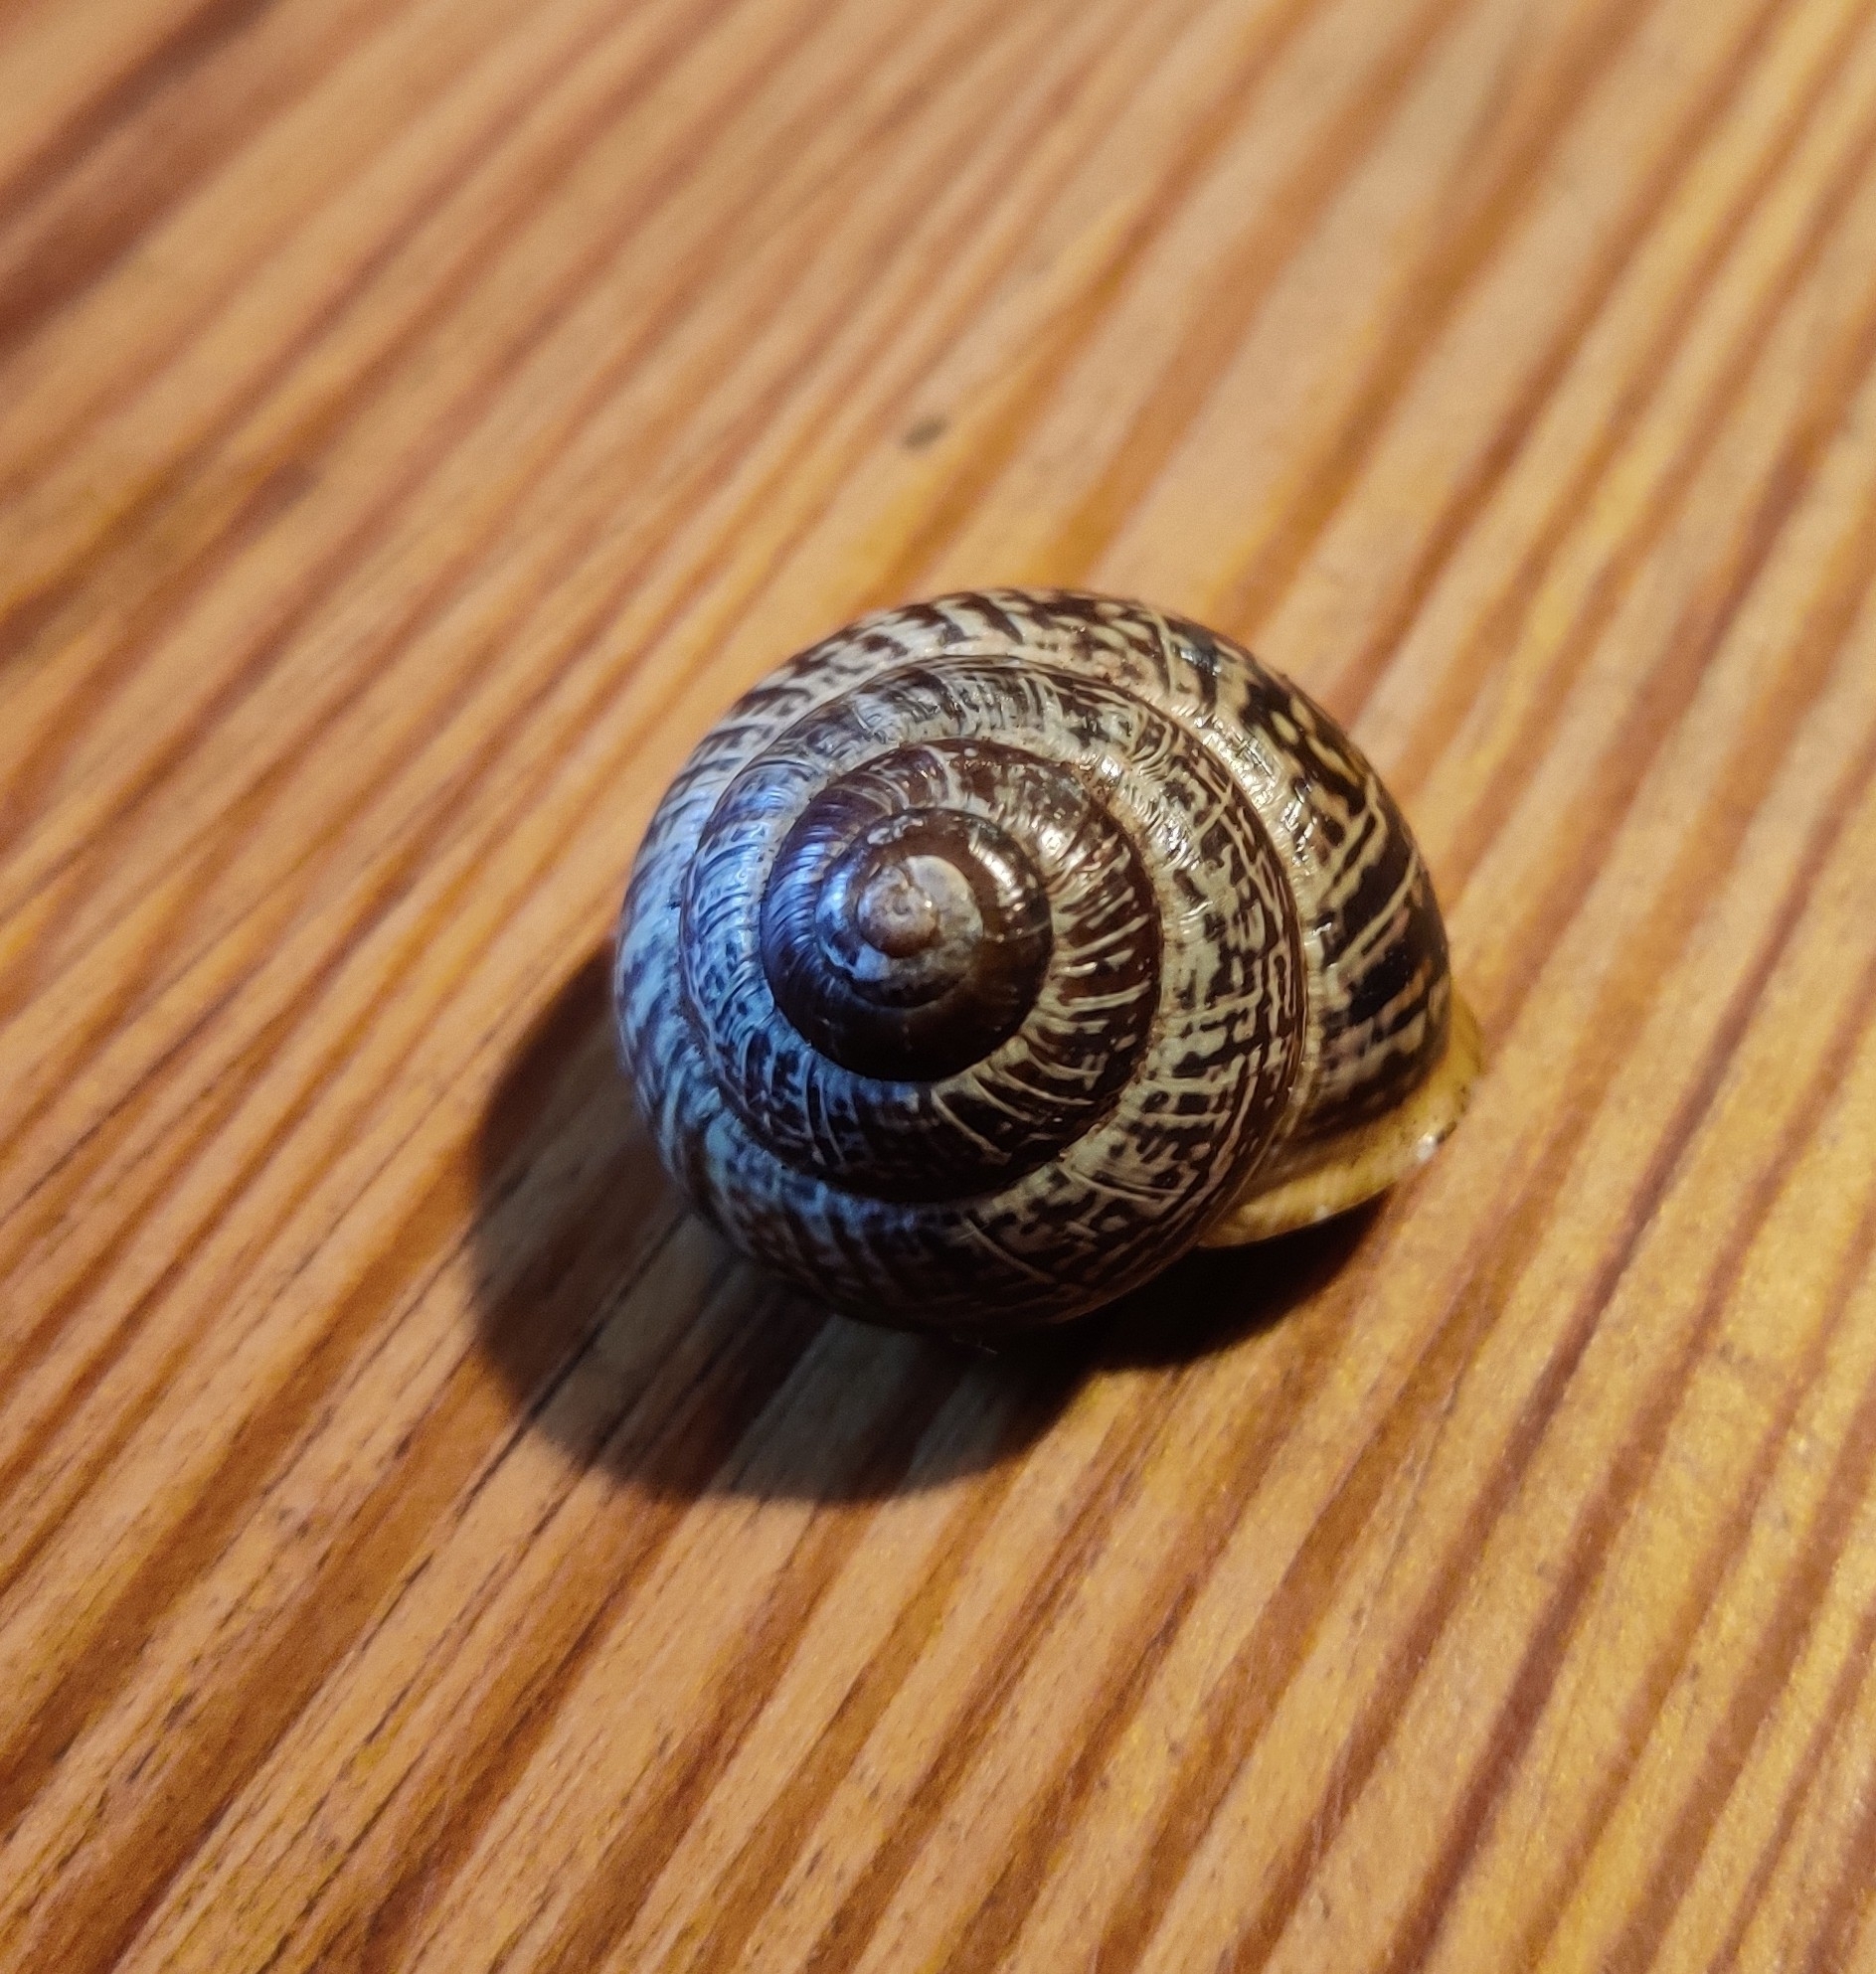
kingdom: Animalia
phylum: Mollusca
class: Gastropoda
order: Stylommatophora
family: Helicidae
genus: Arianta
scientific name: Arianta arbustorum
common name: Copse snail
